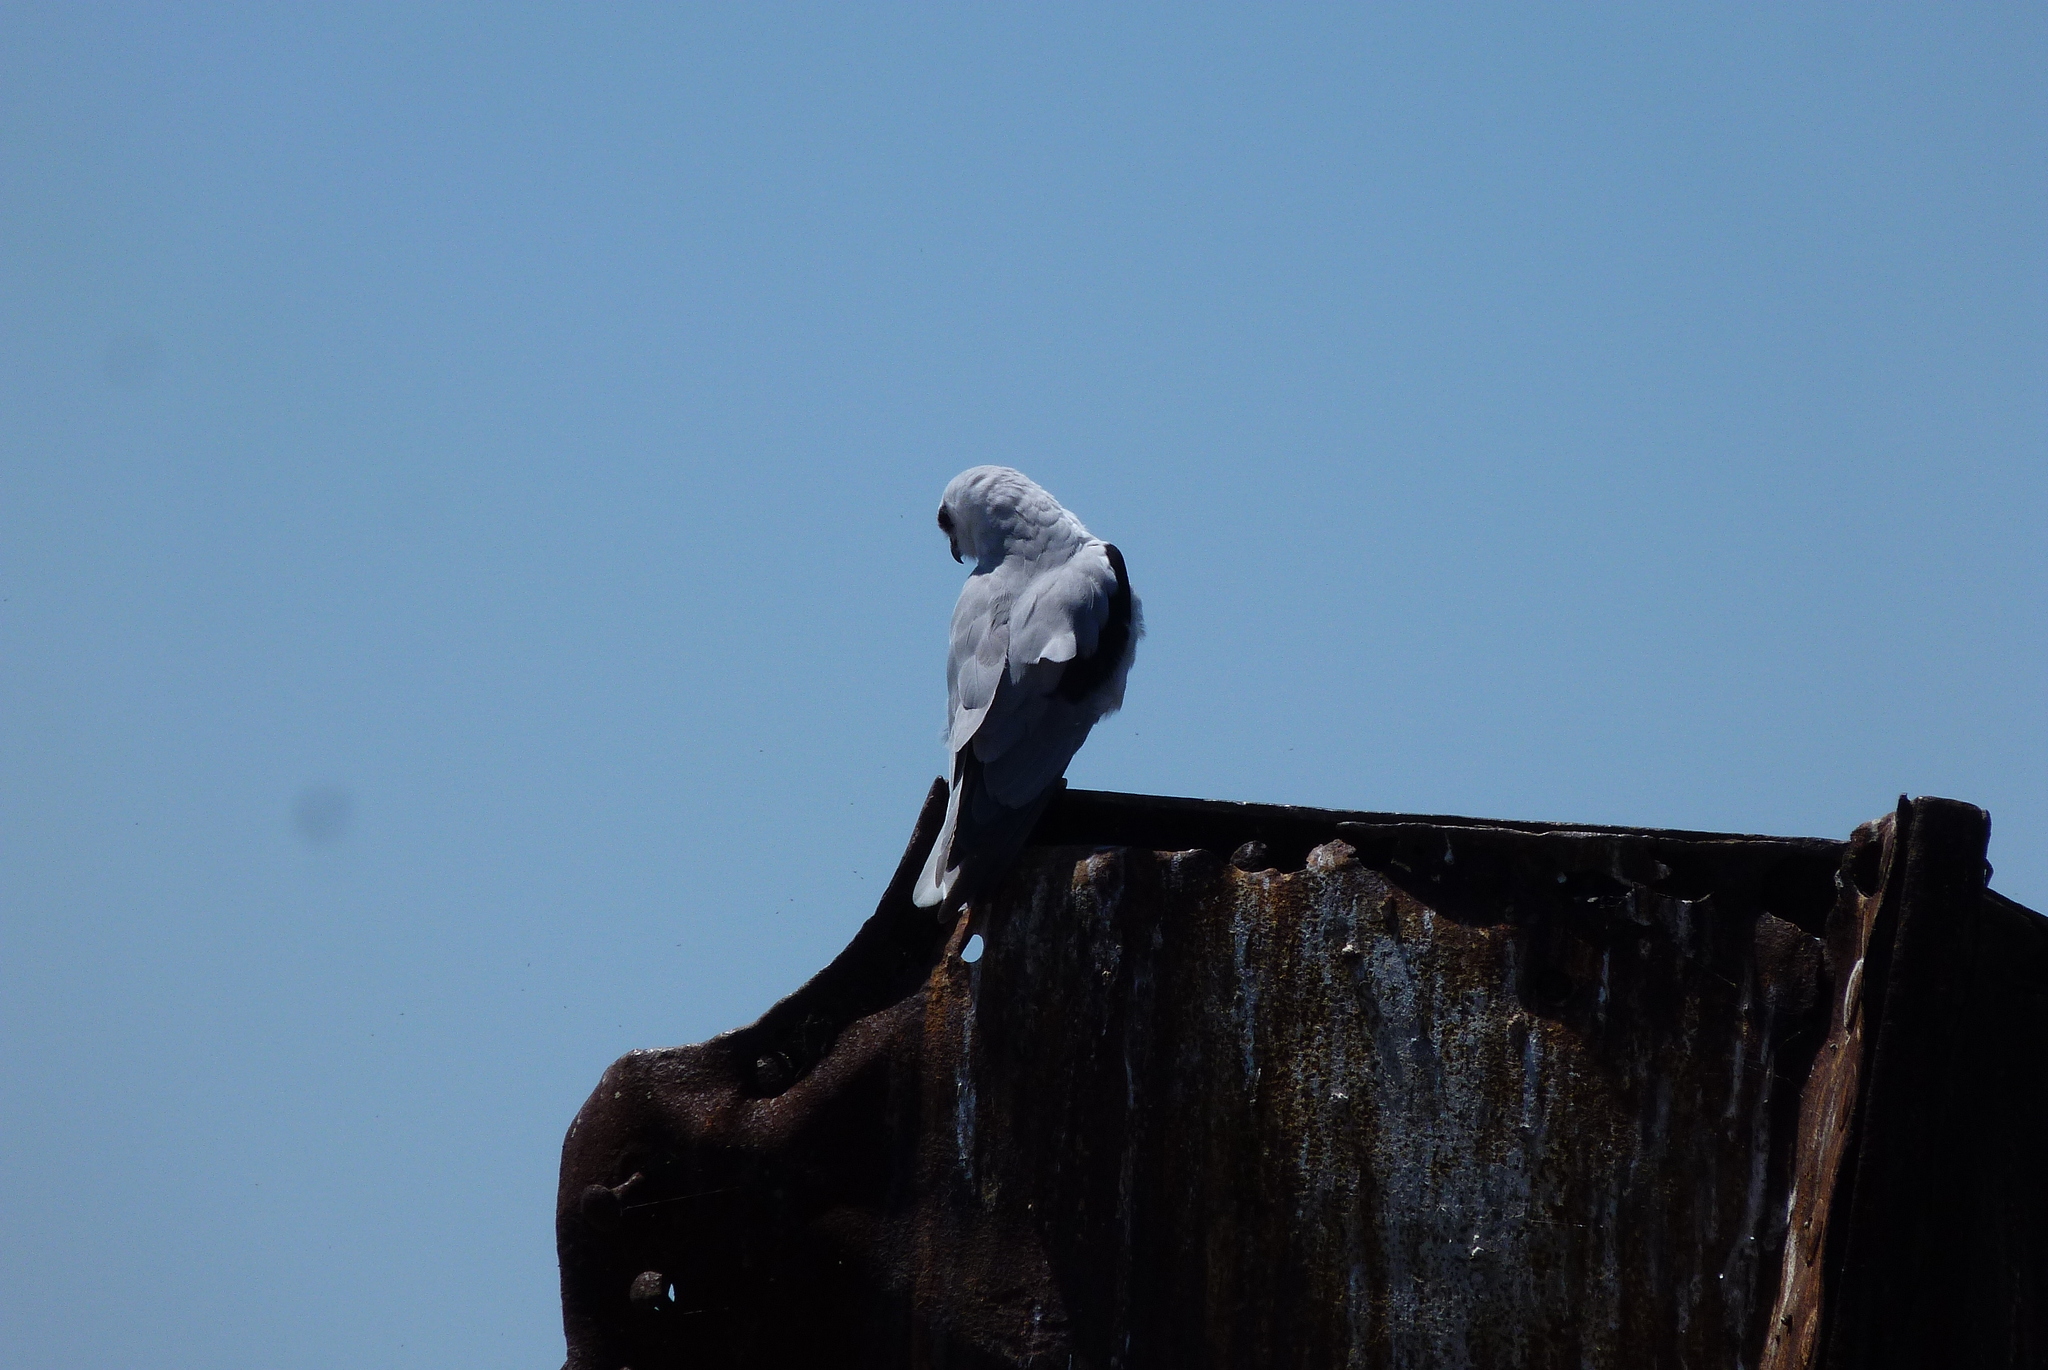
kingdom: Animalia
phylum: Chordata
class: Aves
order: Accipitriformes
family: Accipitridae
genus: Elanus
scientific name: Elanus axillaris
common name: Black-shouldered kite
